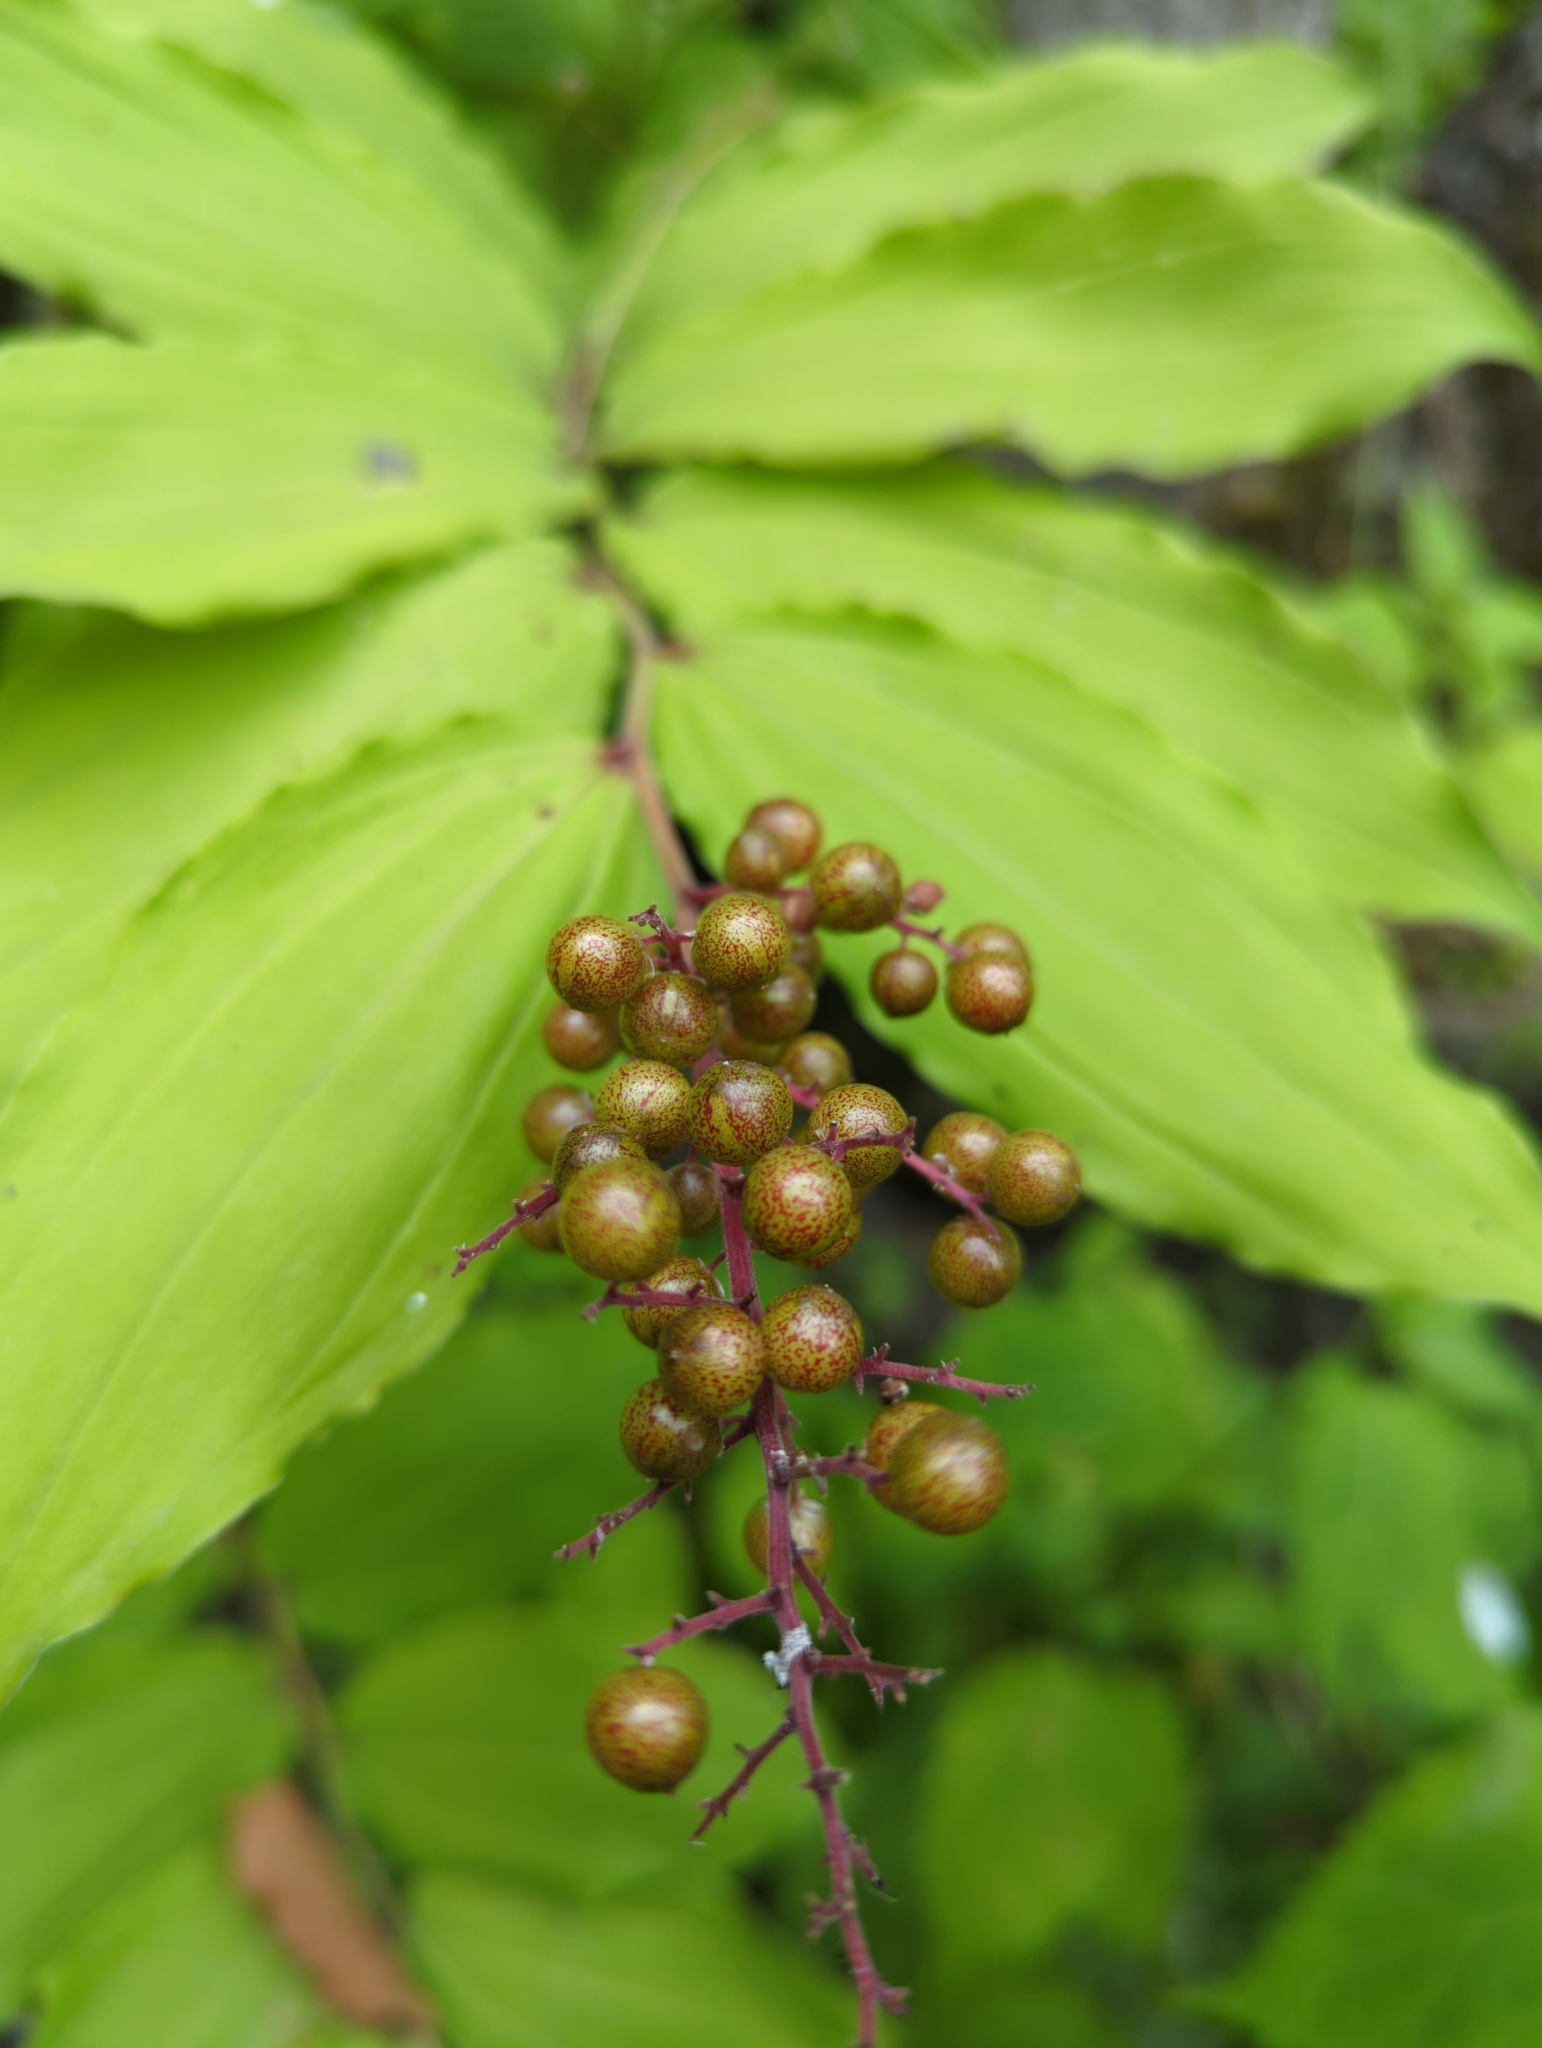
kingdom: Plantae
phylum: Tracheophyta
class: Liliopsida
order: Asparagales
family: Asparagaceae
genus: Maianthemum
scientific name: Maianthemum racemosum
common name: False spikenard
